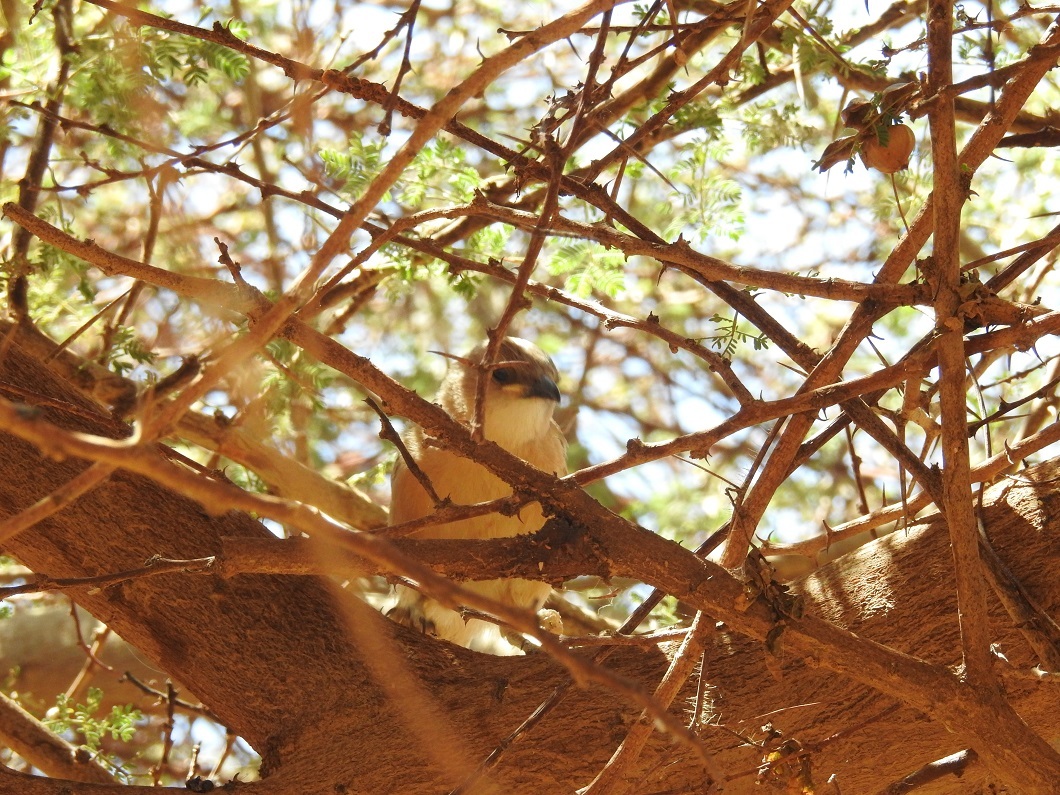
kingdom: Animalia
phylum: Chordata
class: Aves
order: Passeriformes
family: Leiothrichidae
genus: Turdoides
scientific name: Turdoides fulva
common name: Fulvous babbler
